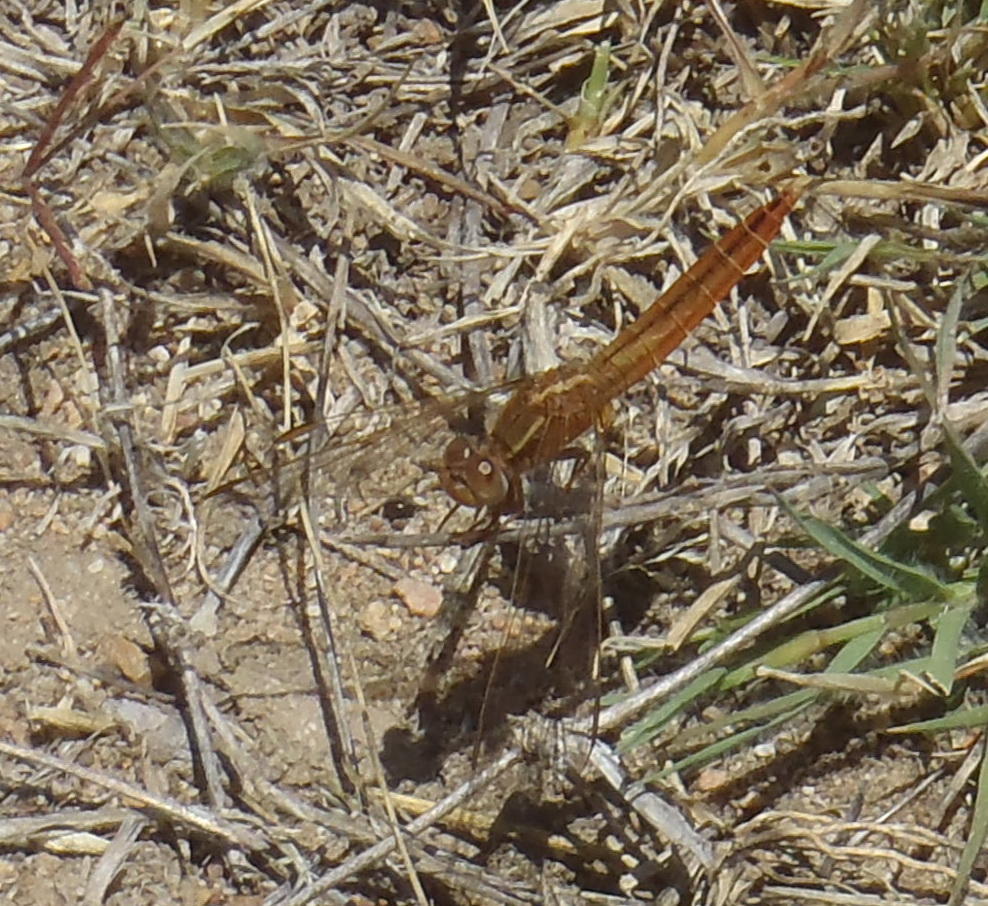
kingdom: Animalia
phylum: Arthropoda
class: Insecta
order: Odonata
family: Libellulidae
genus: Crocothemis
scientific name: Crocothemis erythraea
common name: Scarlet dragonfly
